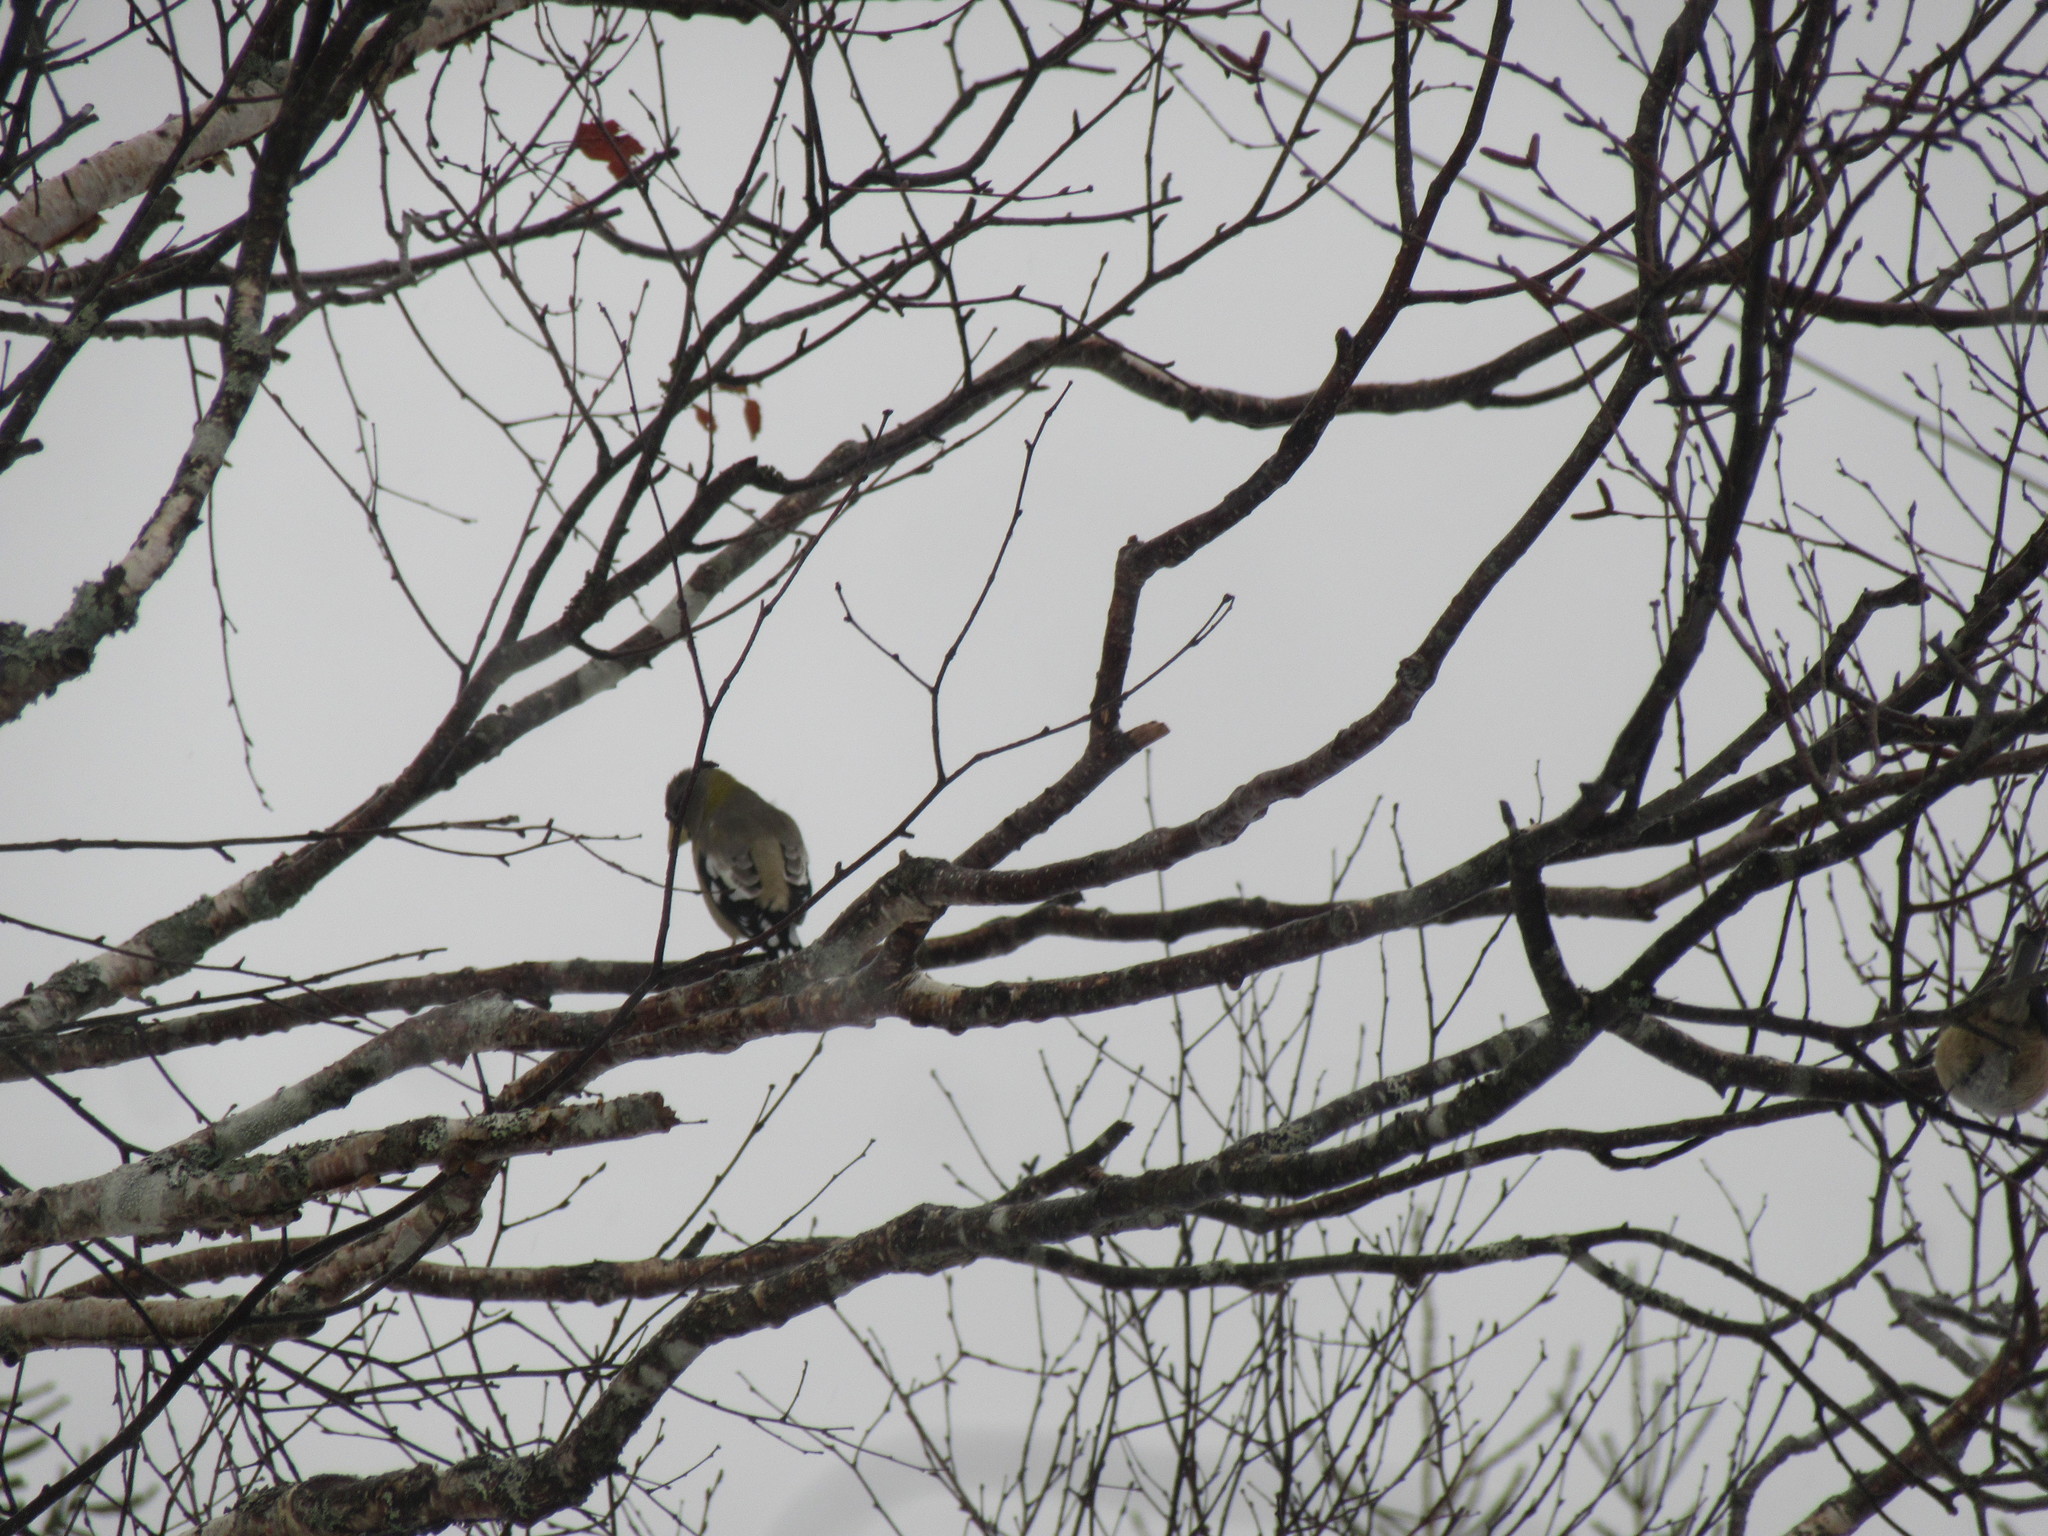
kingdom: Animalia
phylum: Chordata
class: Aves
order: Passeriformes
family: Fringillidae
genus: Hesperiphona
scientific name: Hesperiphona vespertina
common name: Evening grosbeak
